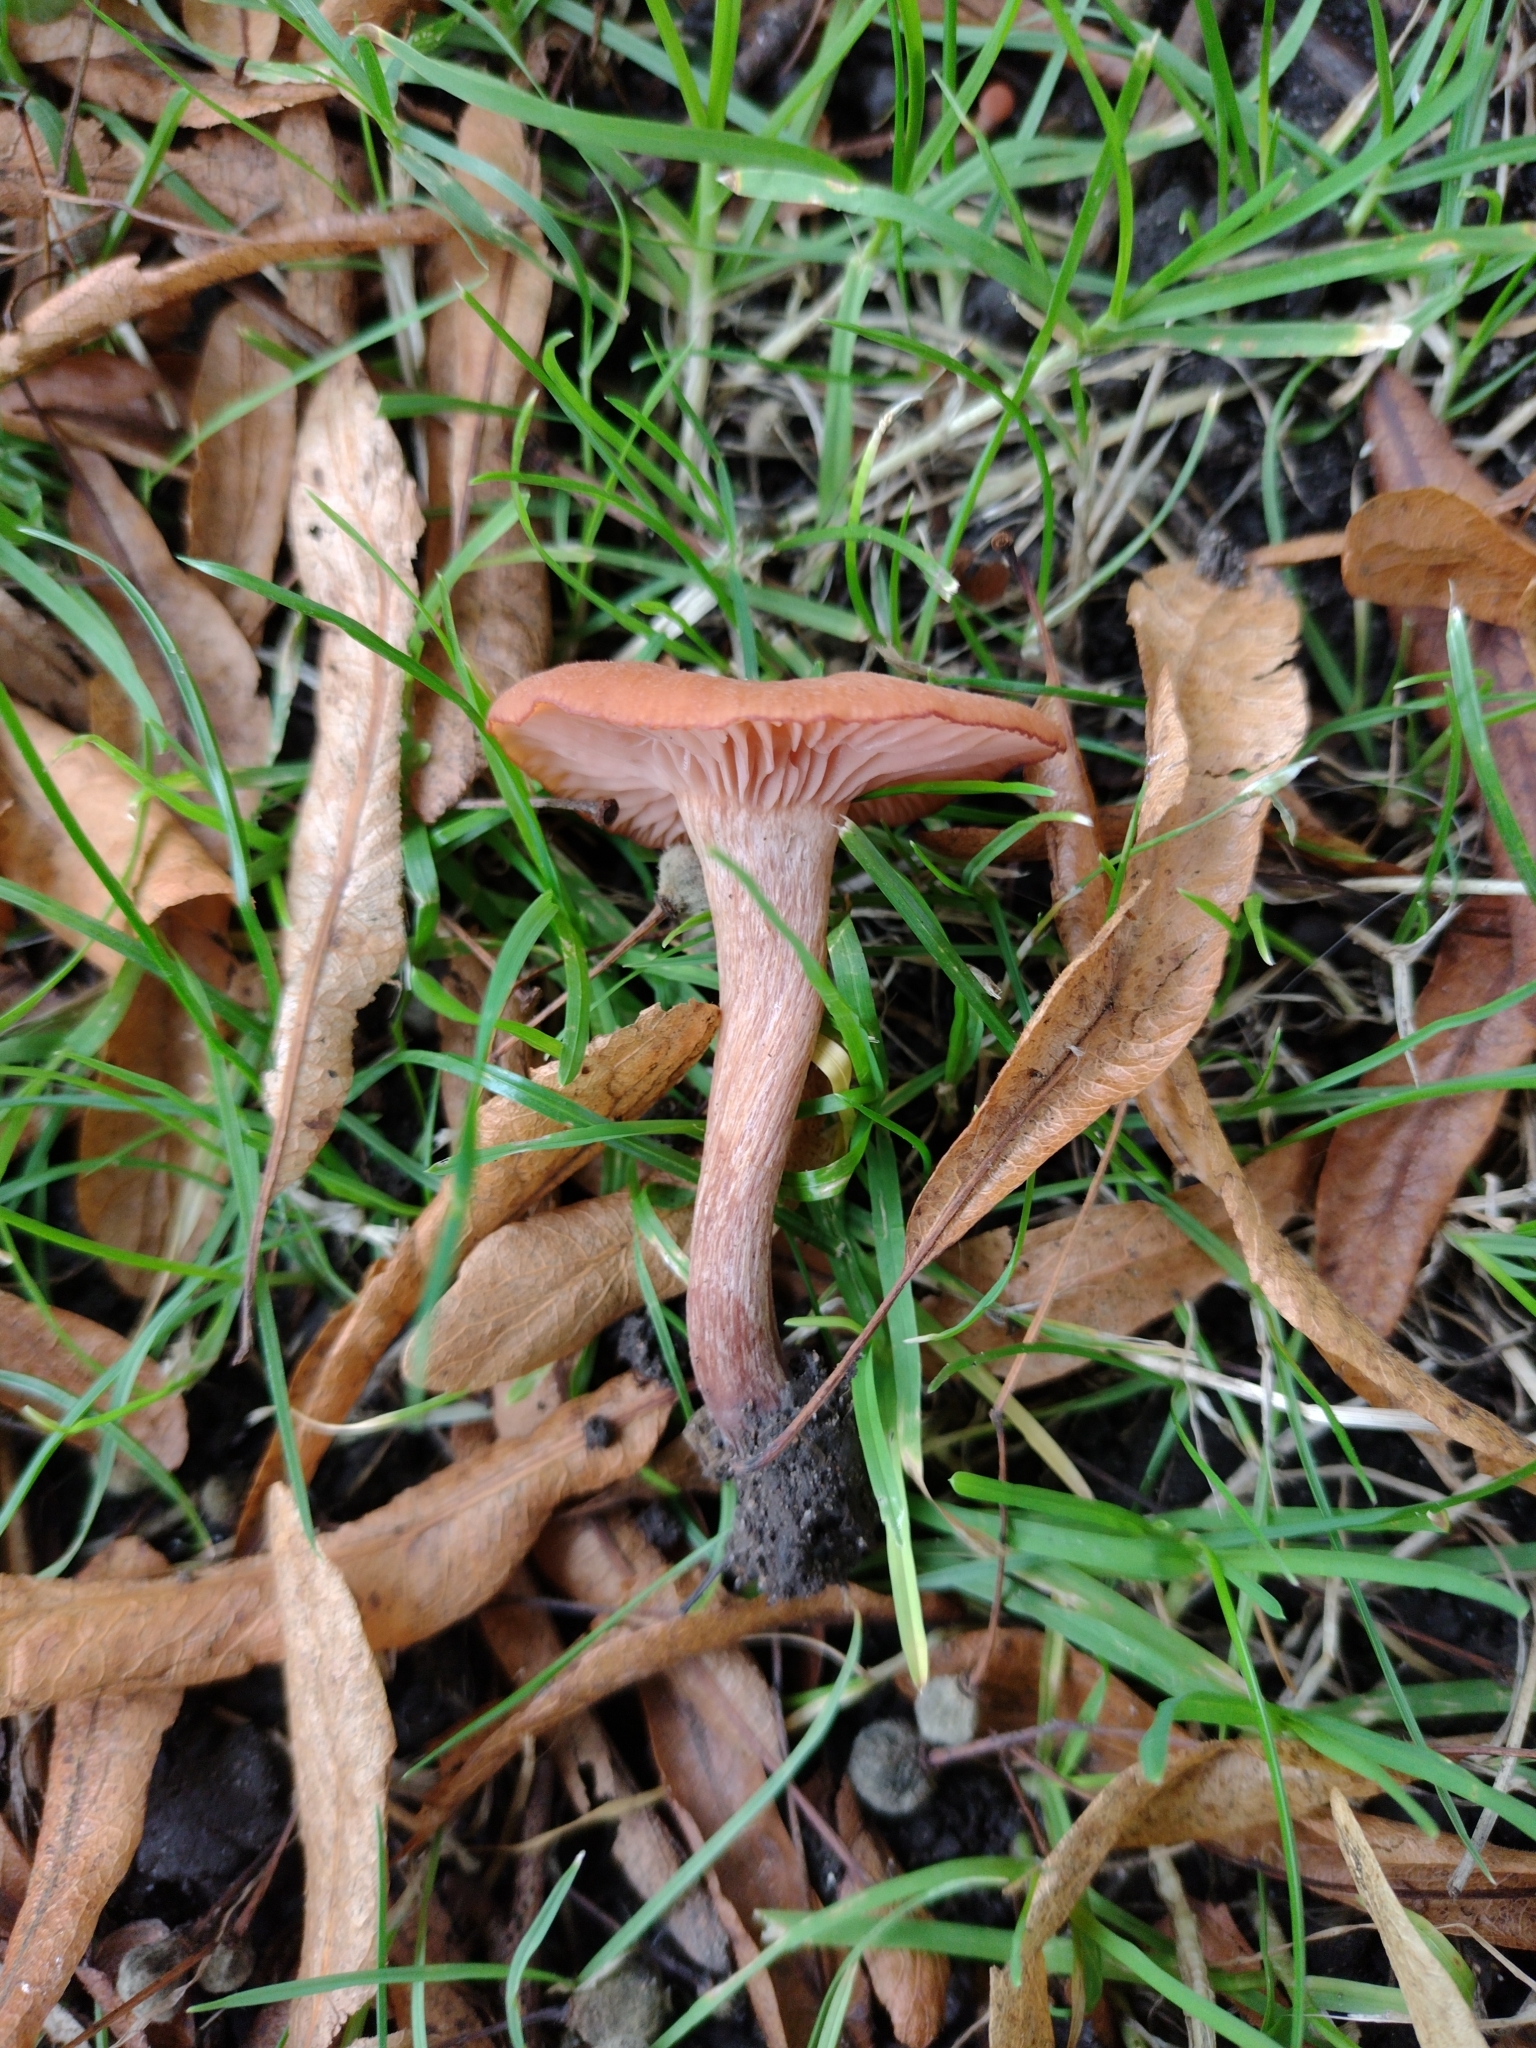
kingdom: Fungi
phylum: Basidiomycota
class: Agaricomycetes
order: Agaricales
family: Hydnangiaceae
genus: Laccaria
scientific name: Laccaria laccata
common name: Deceiver
